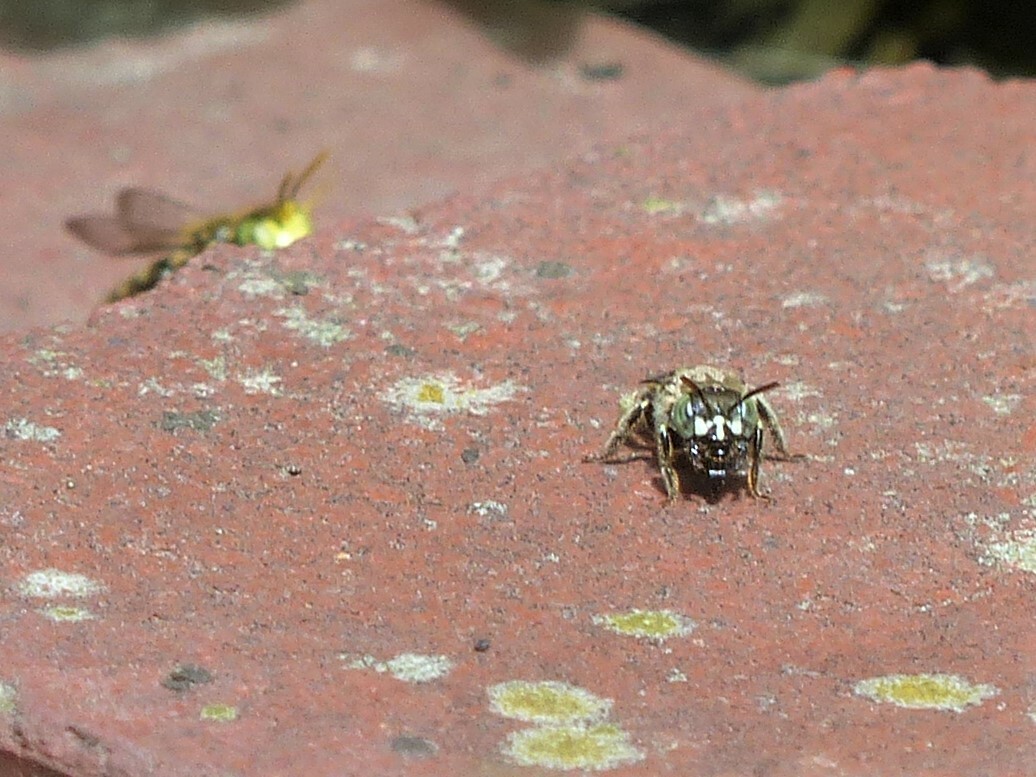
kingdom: Animalia
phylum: Arthropoda
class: Insecta
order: Hymenoptera
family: Andrenidae
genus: Calliopsis
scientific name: Calliopsis andreniformis
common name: Eastern calliopsis bee
